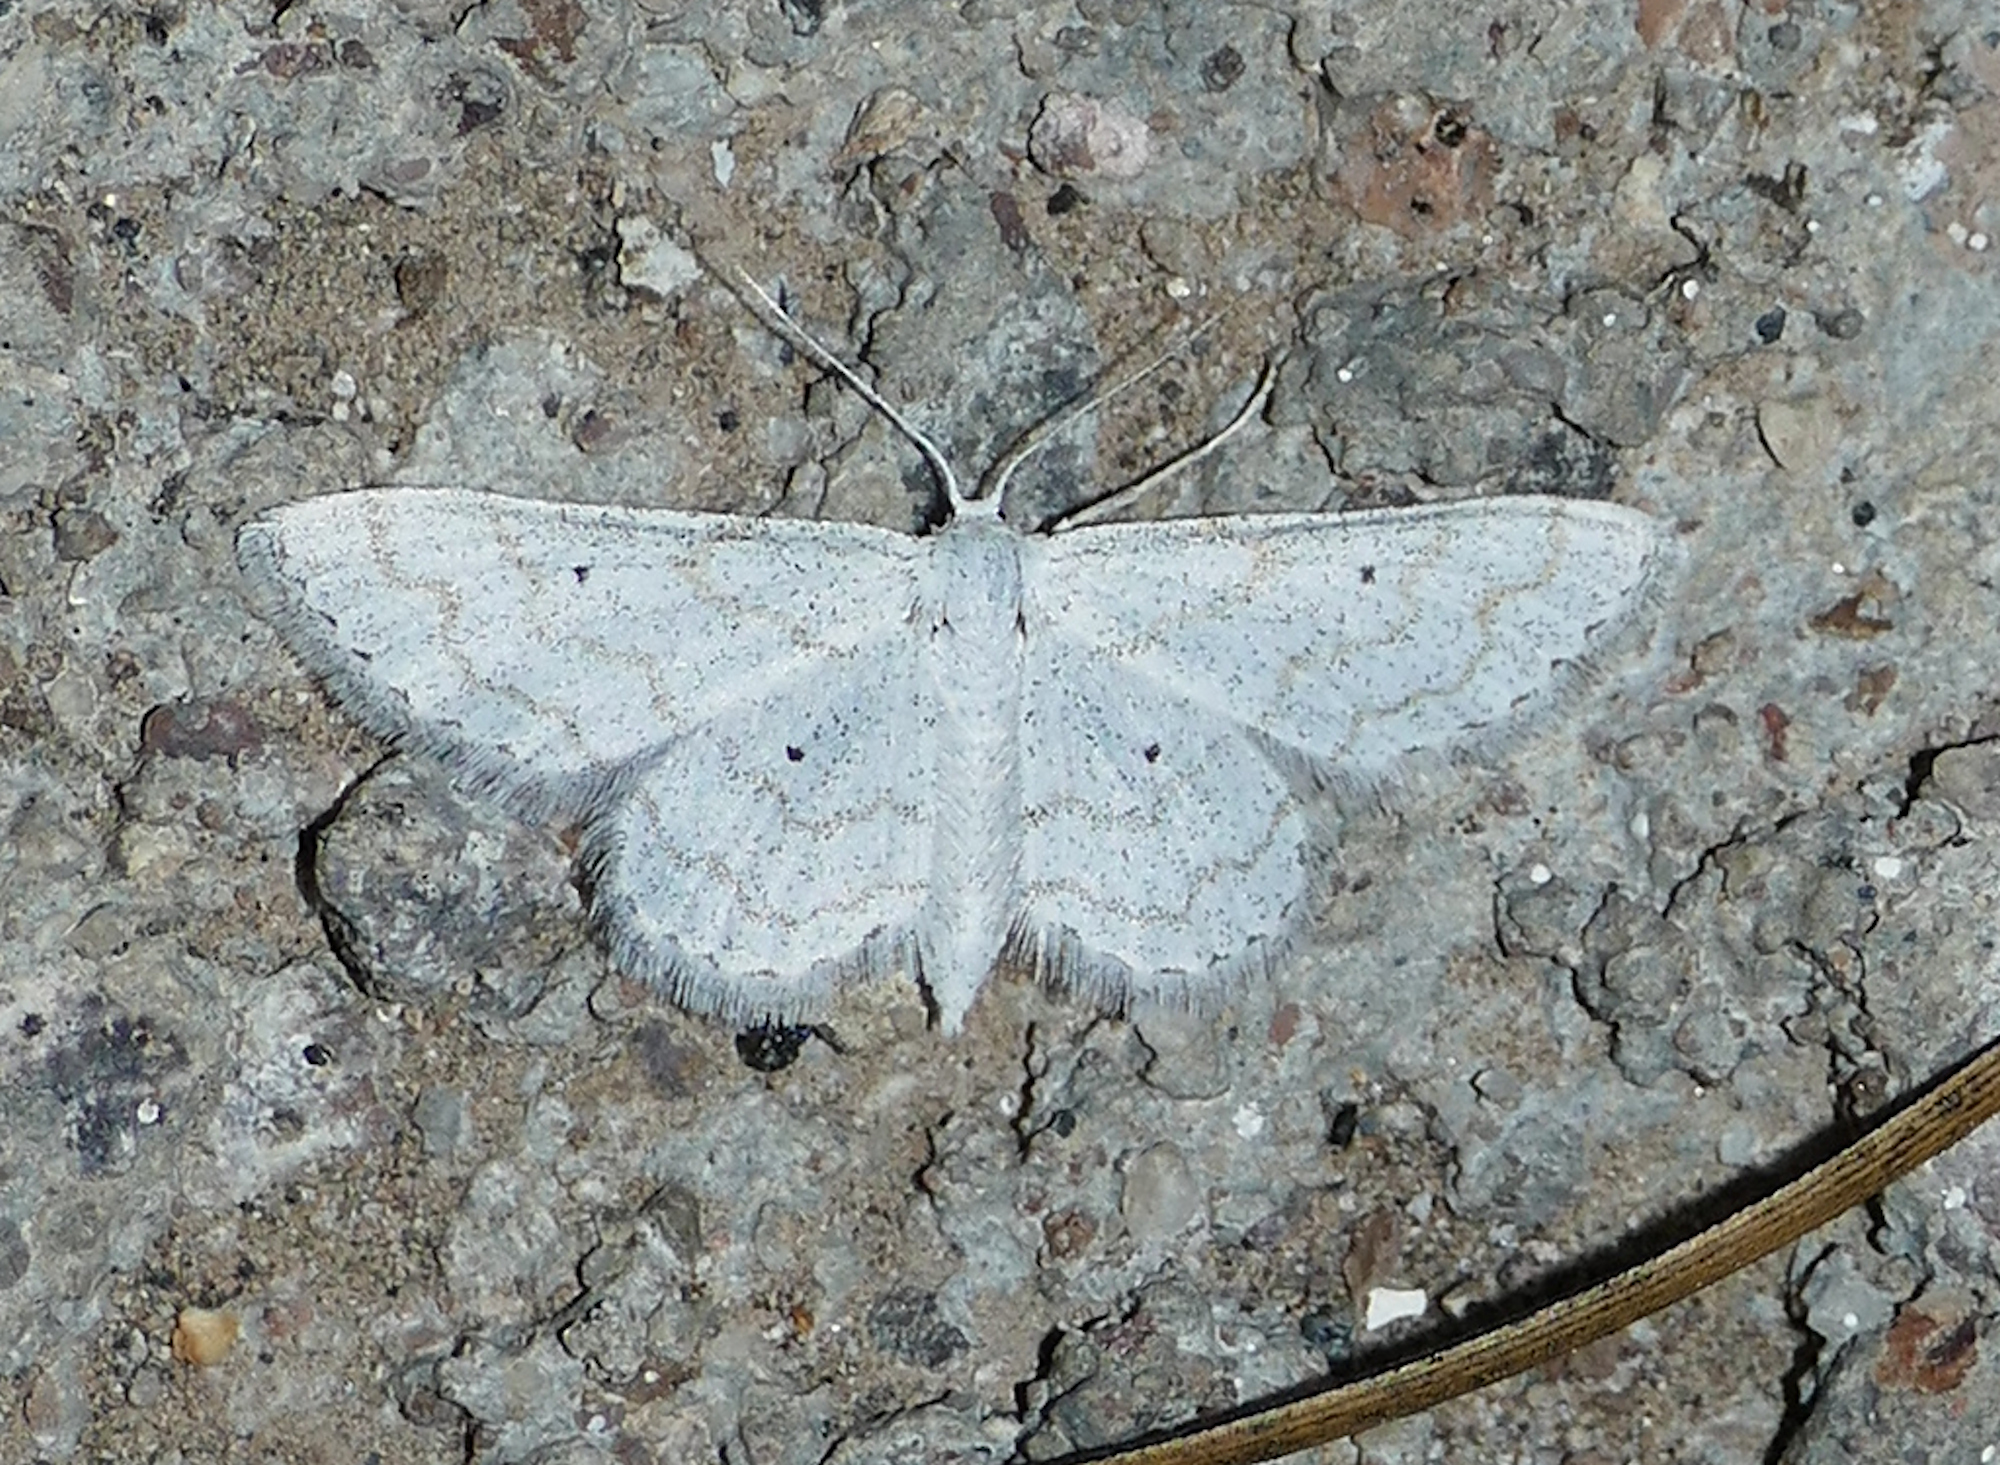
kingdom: Animalia
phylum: Arthropoda
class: Insecta
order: Lepidoptera
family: Geometridae
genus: Lobocleta
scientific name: Lobocleta peralbata
